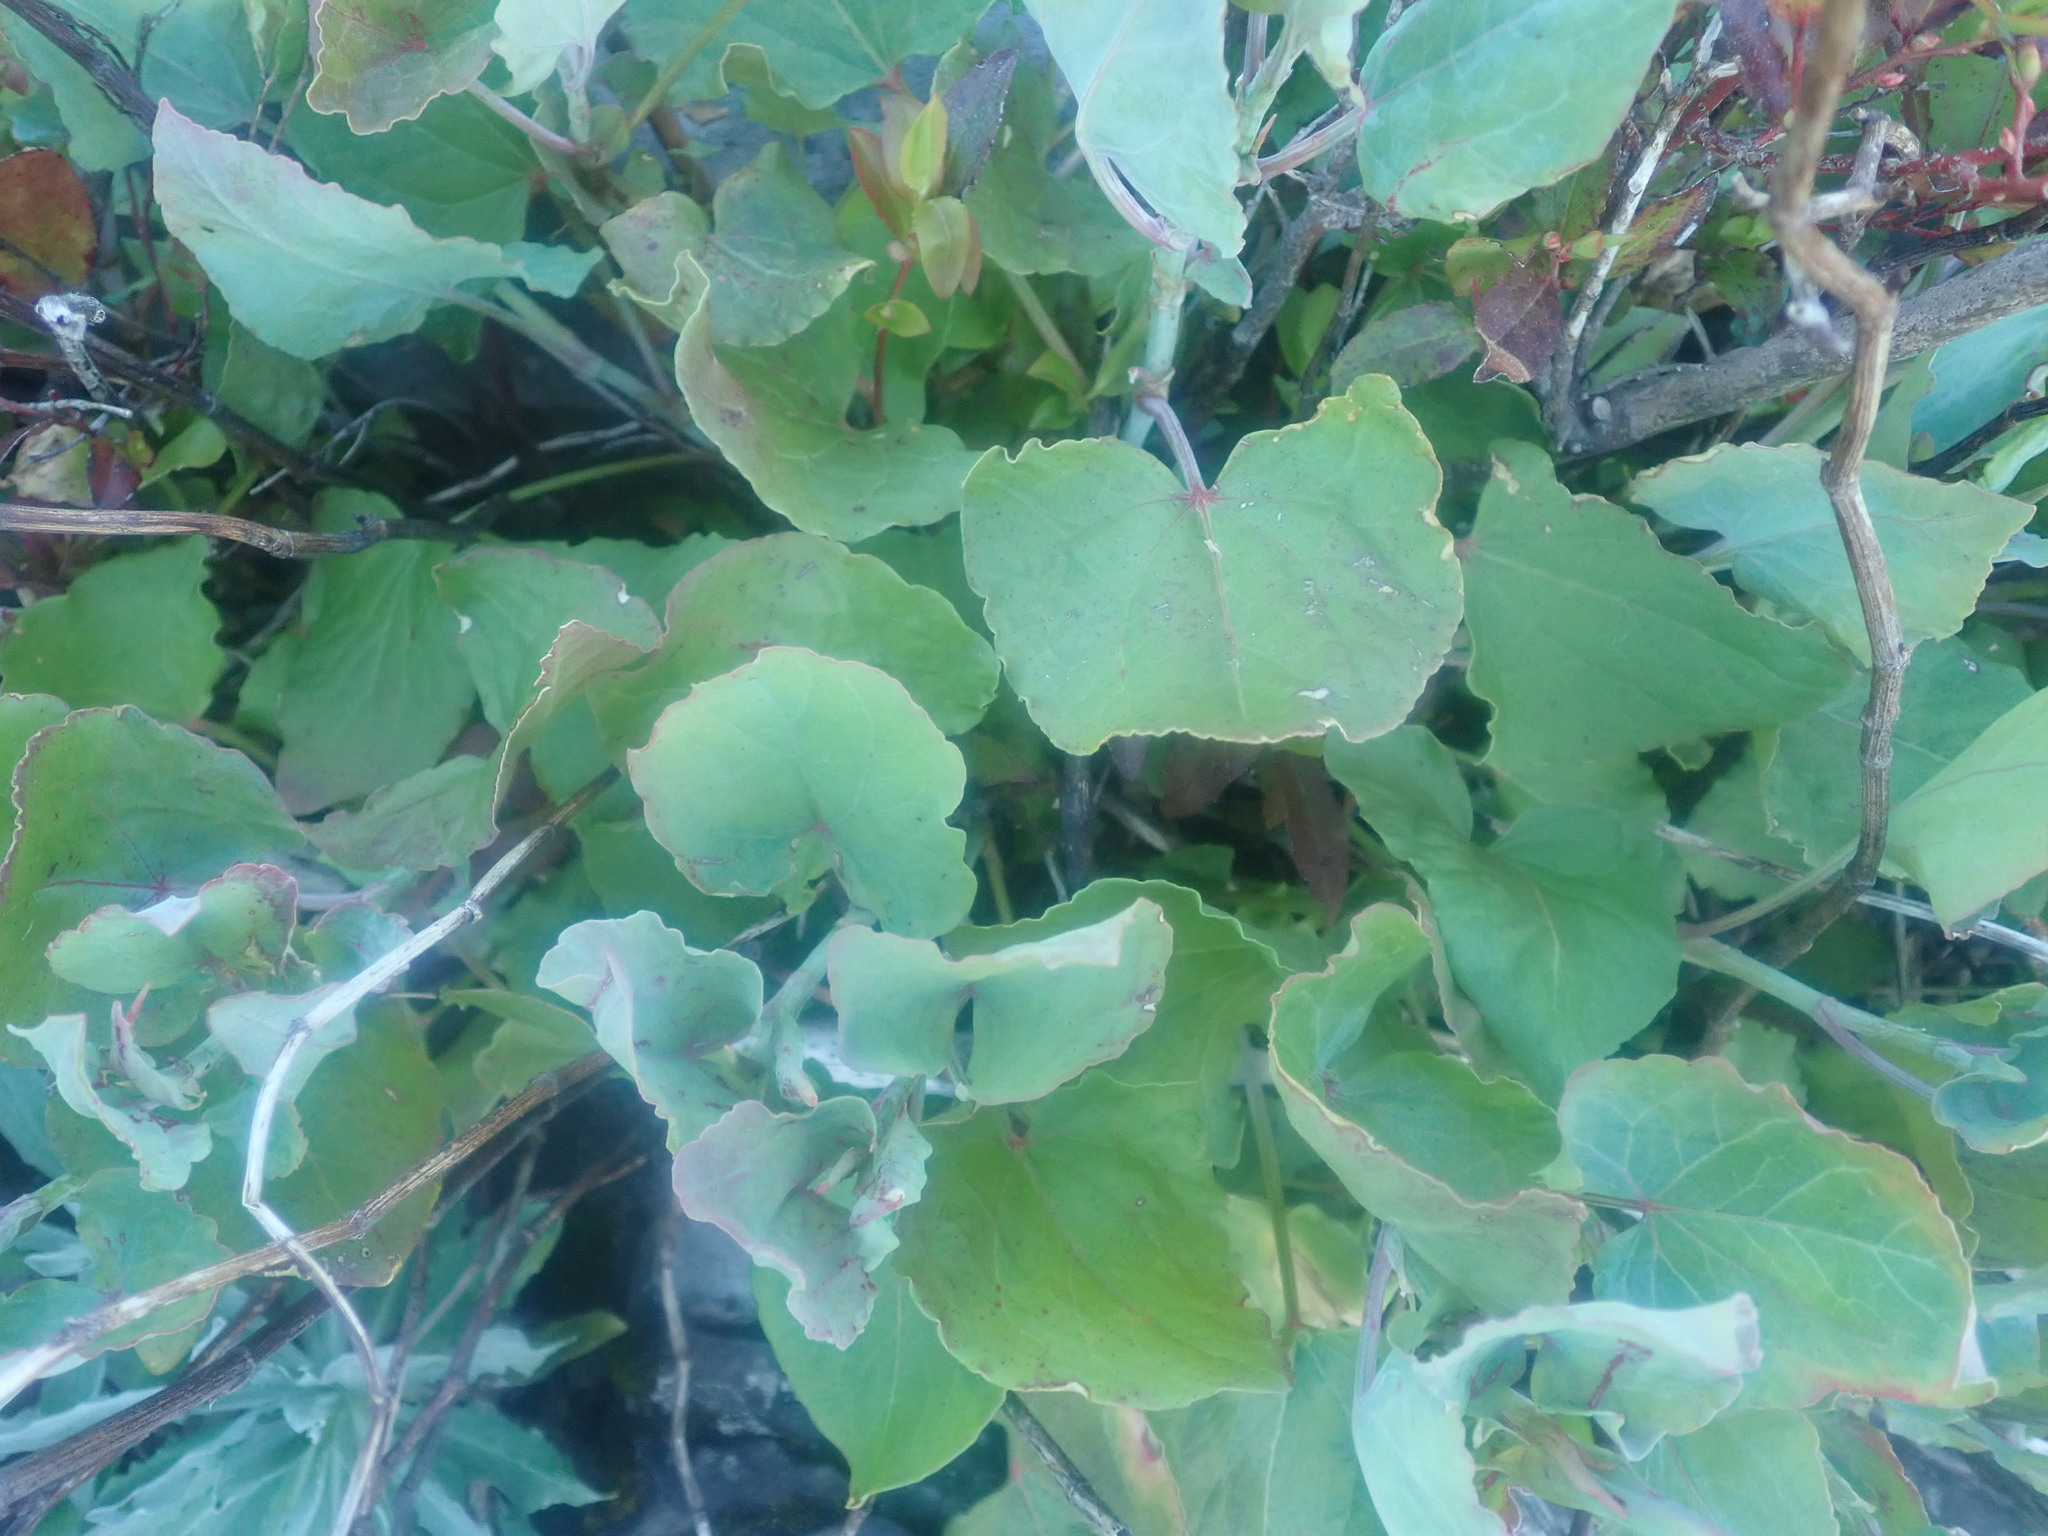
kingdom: Plantae
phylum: Tracheophyta
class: Magnoliopsida
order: Caryophyllales
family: Polygonaceae
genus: Rumex
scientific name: Rumex maderensis
